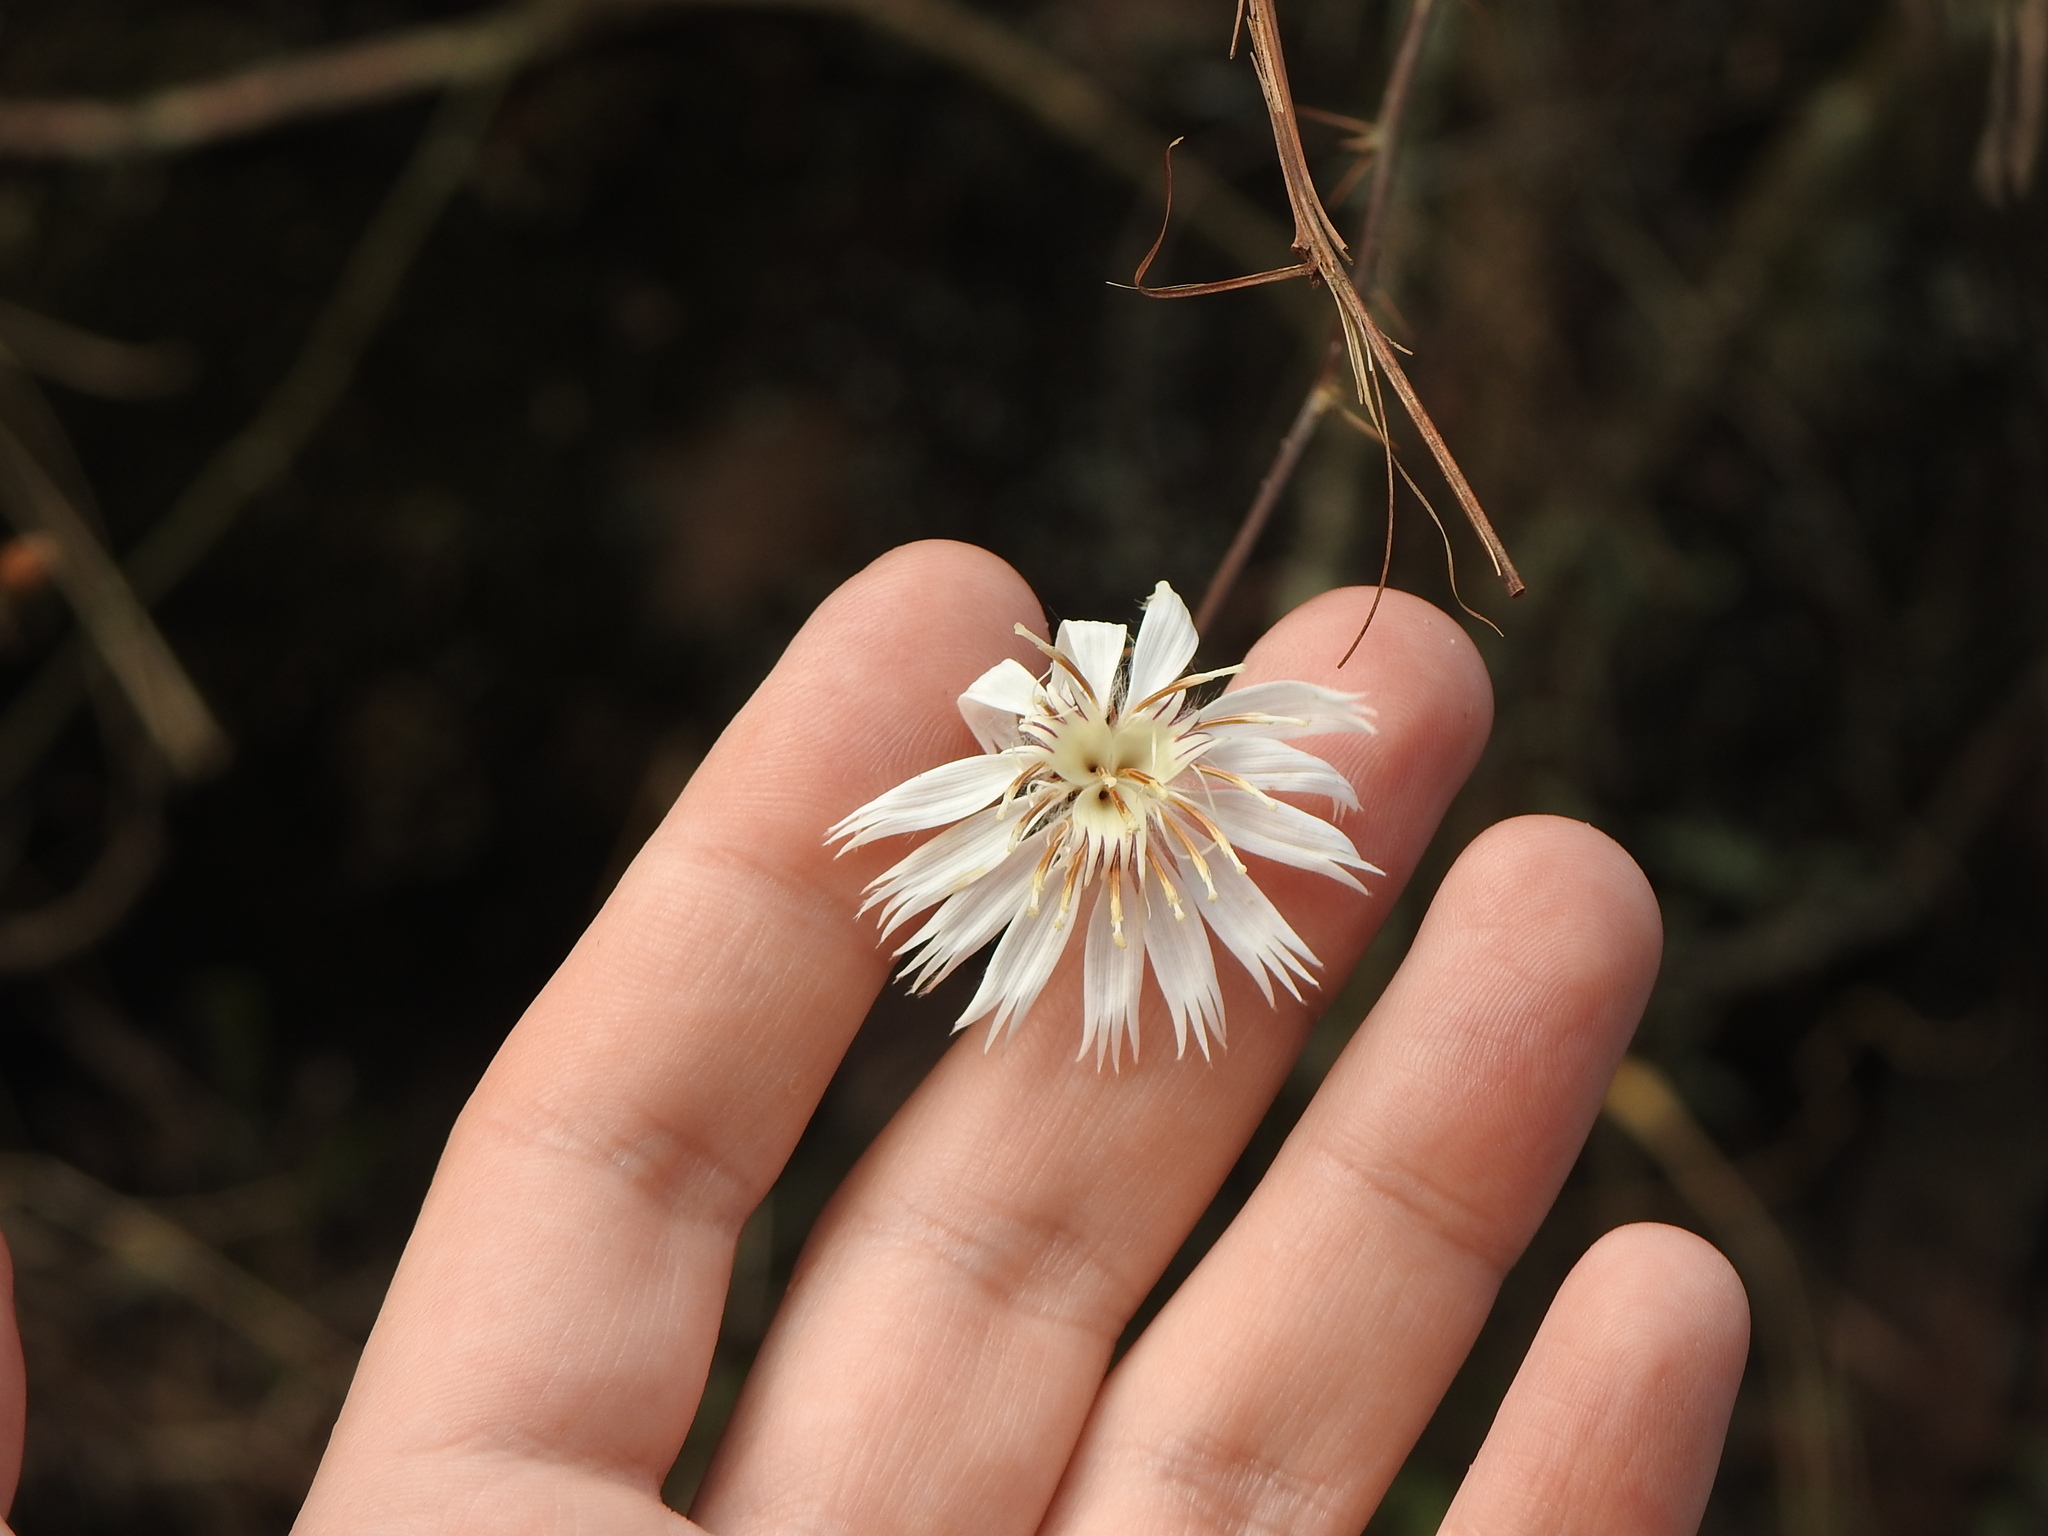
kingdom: Plantae
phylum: Tracheophyta
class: Magnoliopsida
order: Asterales
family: Asteraceae
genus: Barnadesia
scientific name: Barnadesia odorata
